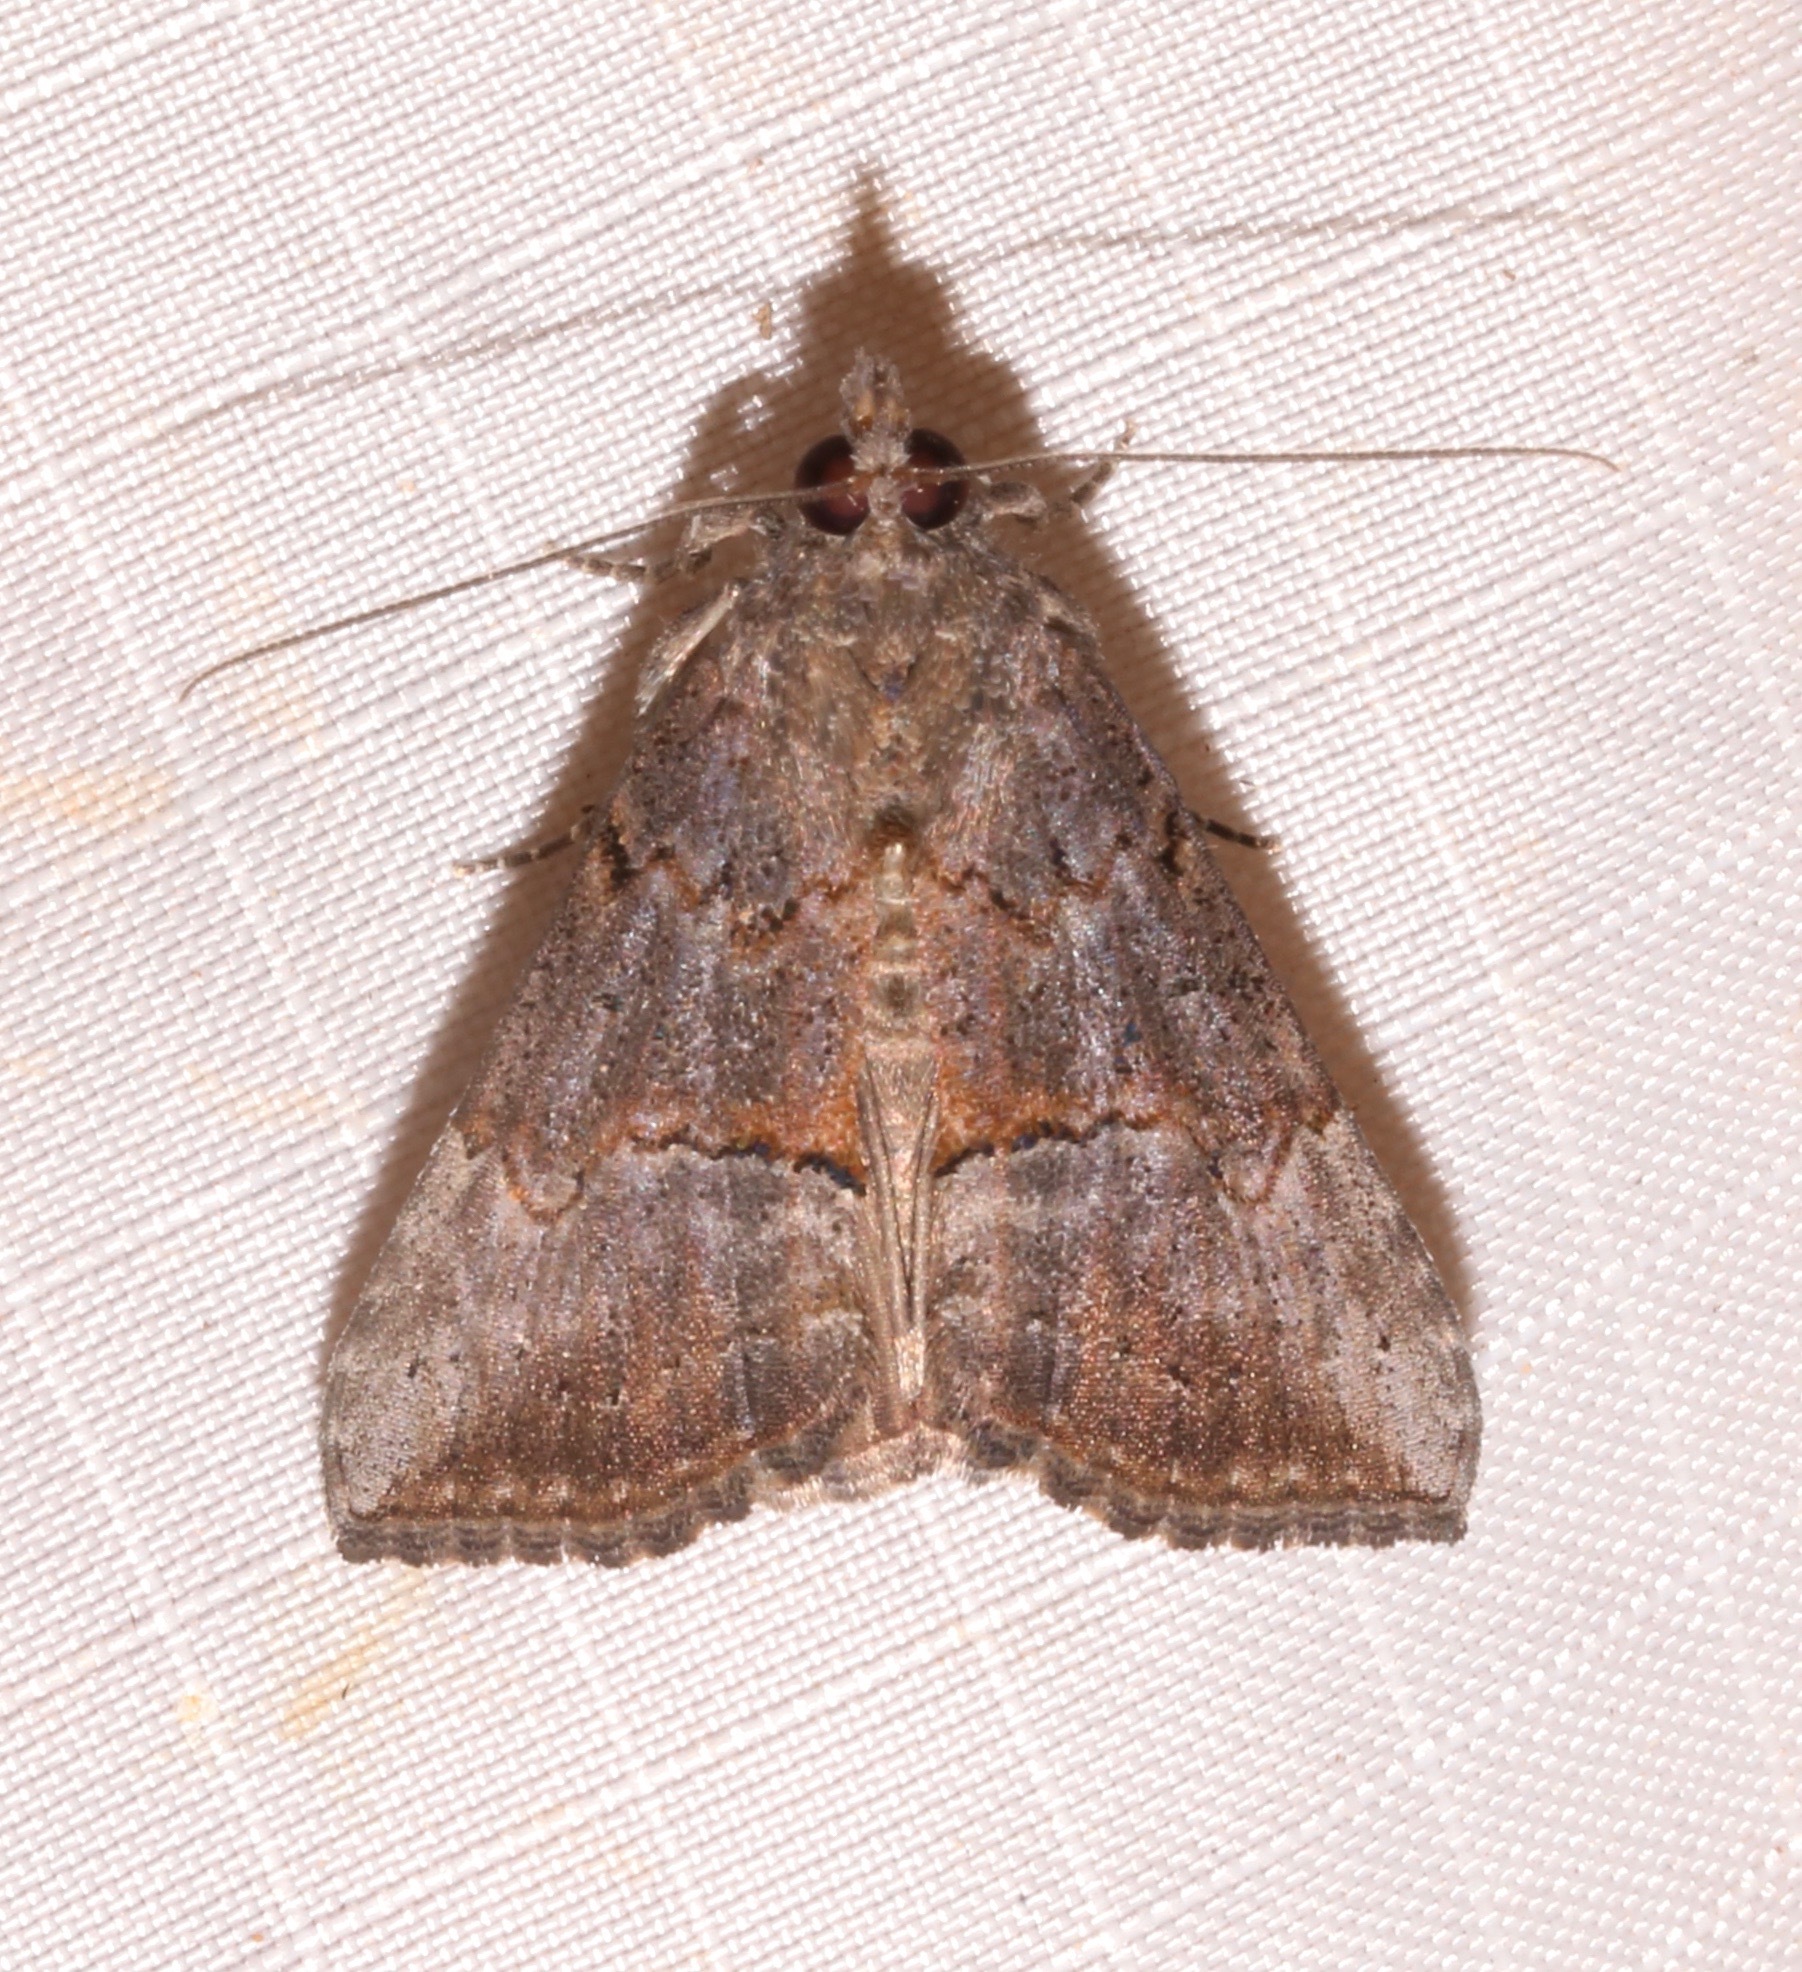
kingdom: Animalia
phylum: Arthropoda
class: Insecta
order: Lepidoptera
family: Erebidae
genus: Hypena
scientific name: Hypena scabra
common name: Green cloverworm
